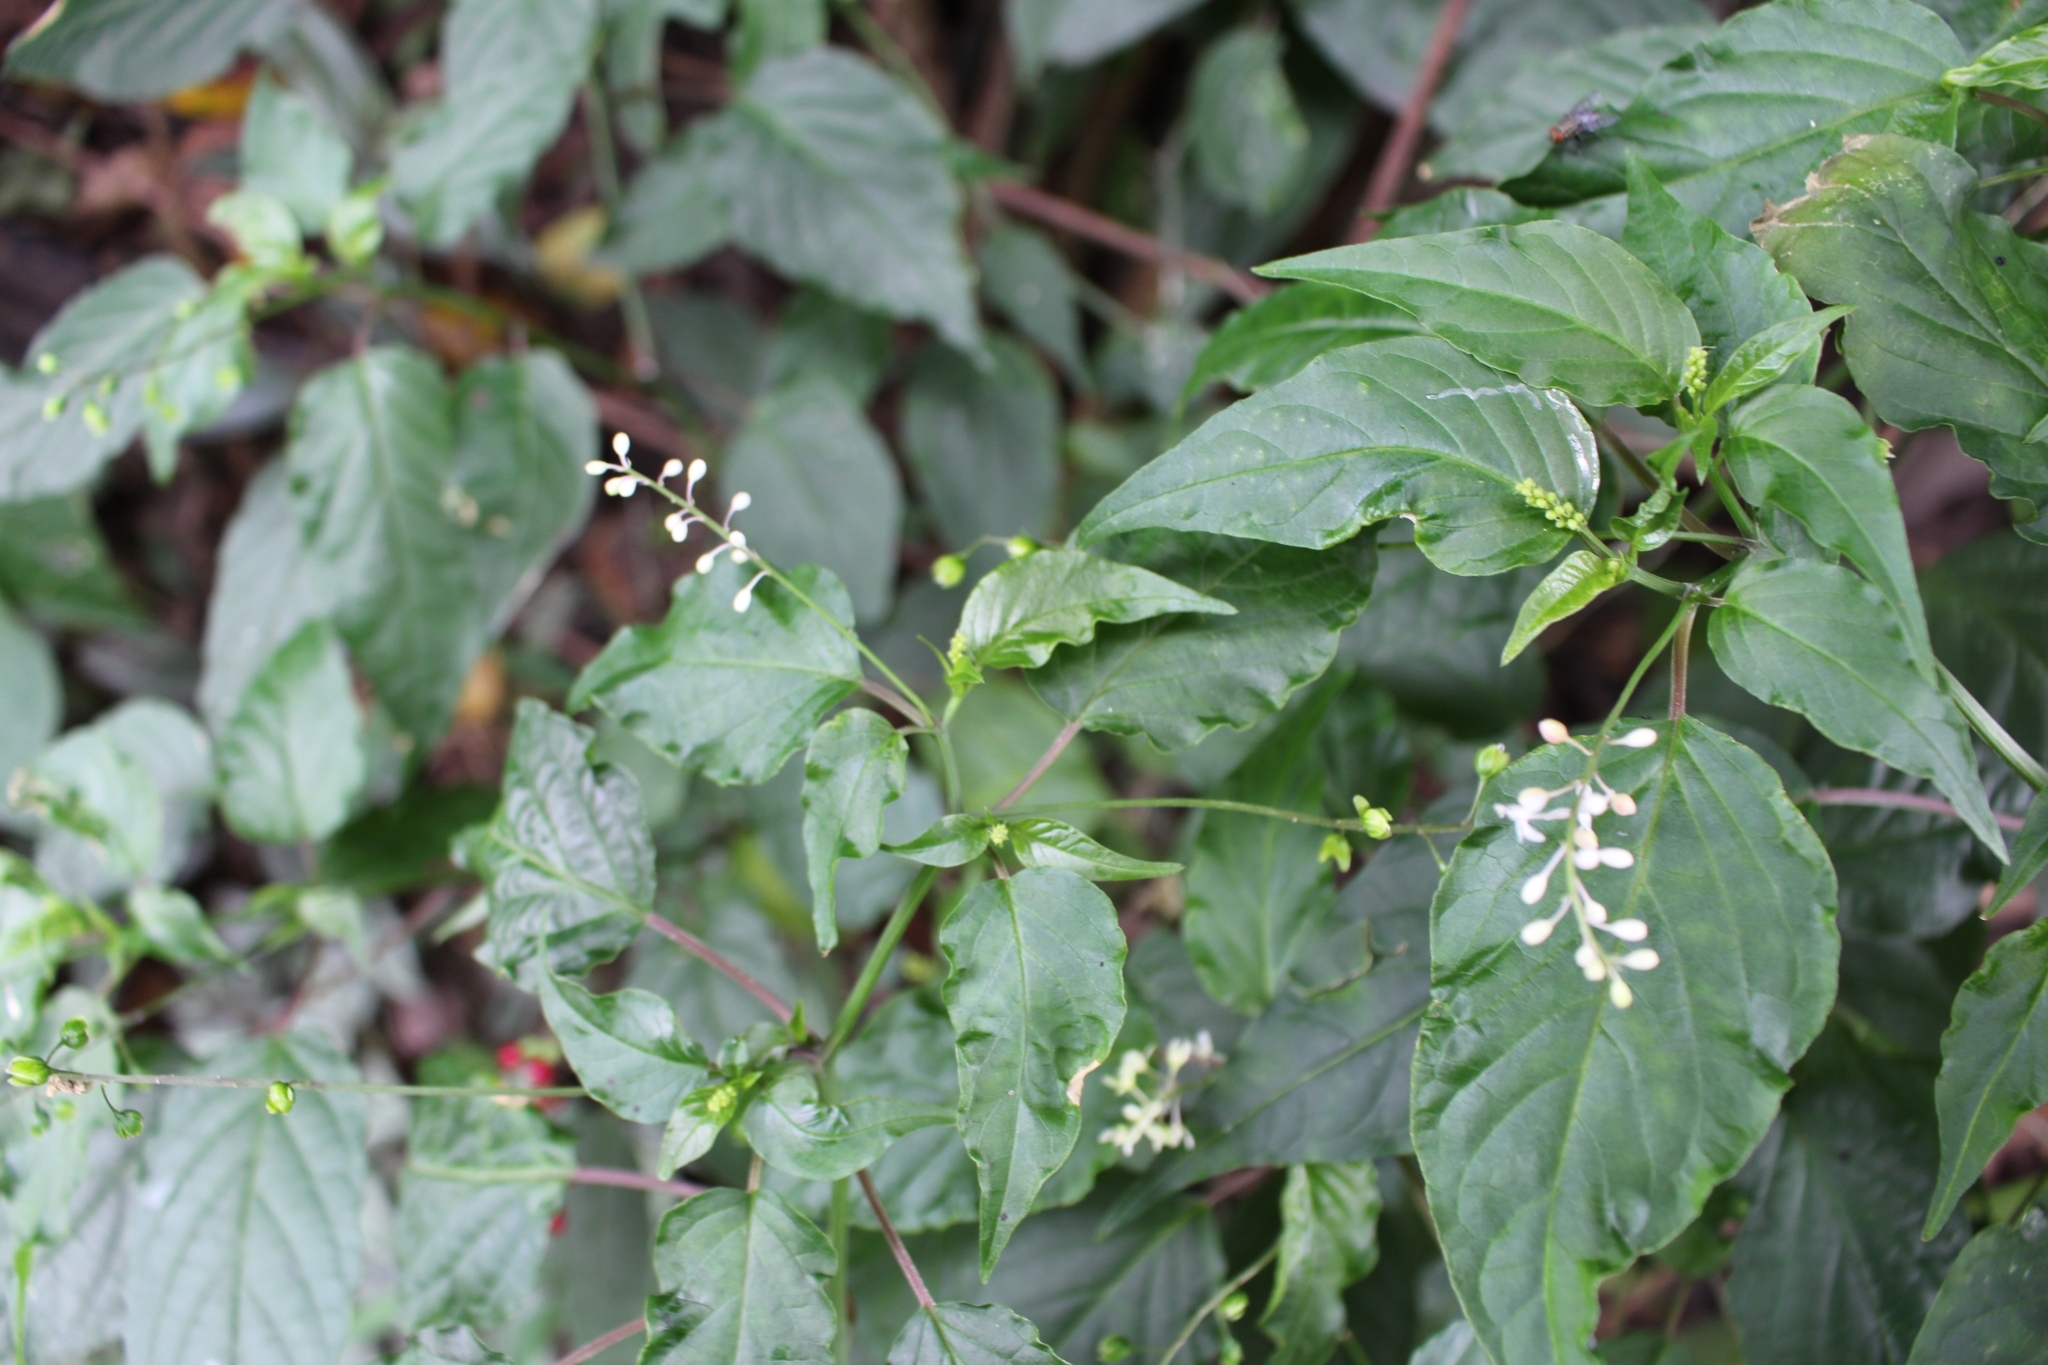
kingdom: Plantae
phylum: Tracheophyta
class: Magnoliopsida
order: Caryophyllales
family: Phytolaccaceae
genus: Rivina
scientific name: Rivina humilis
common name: Rougeplant
